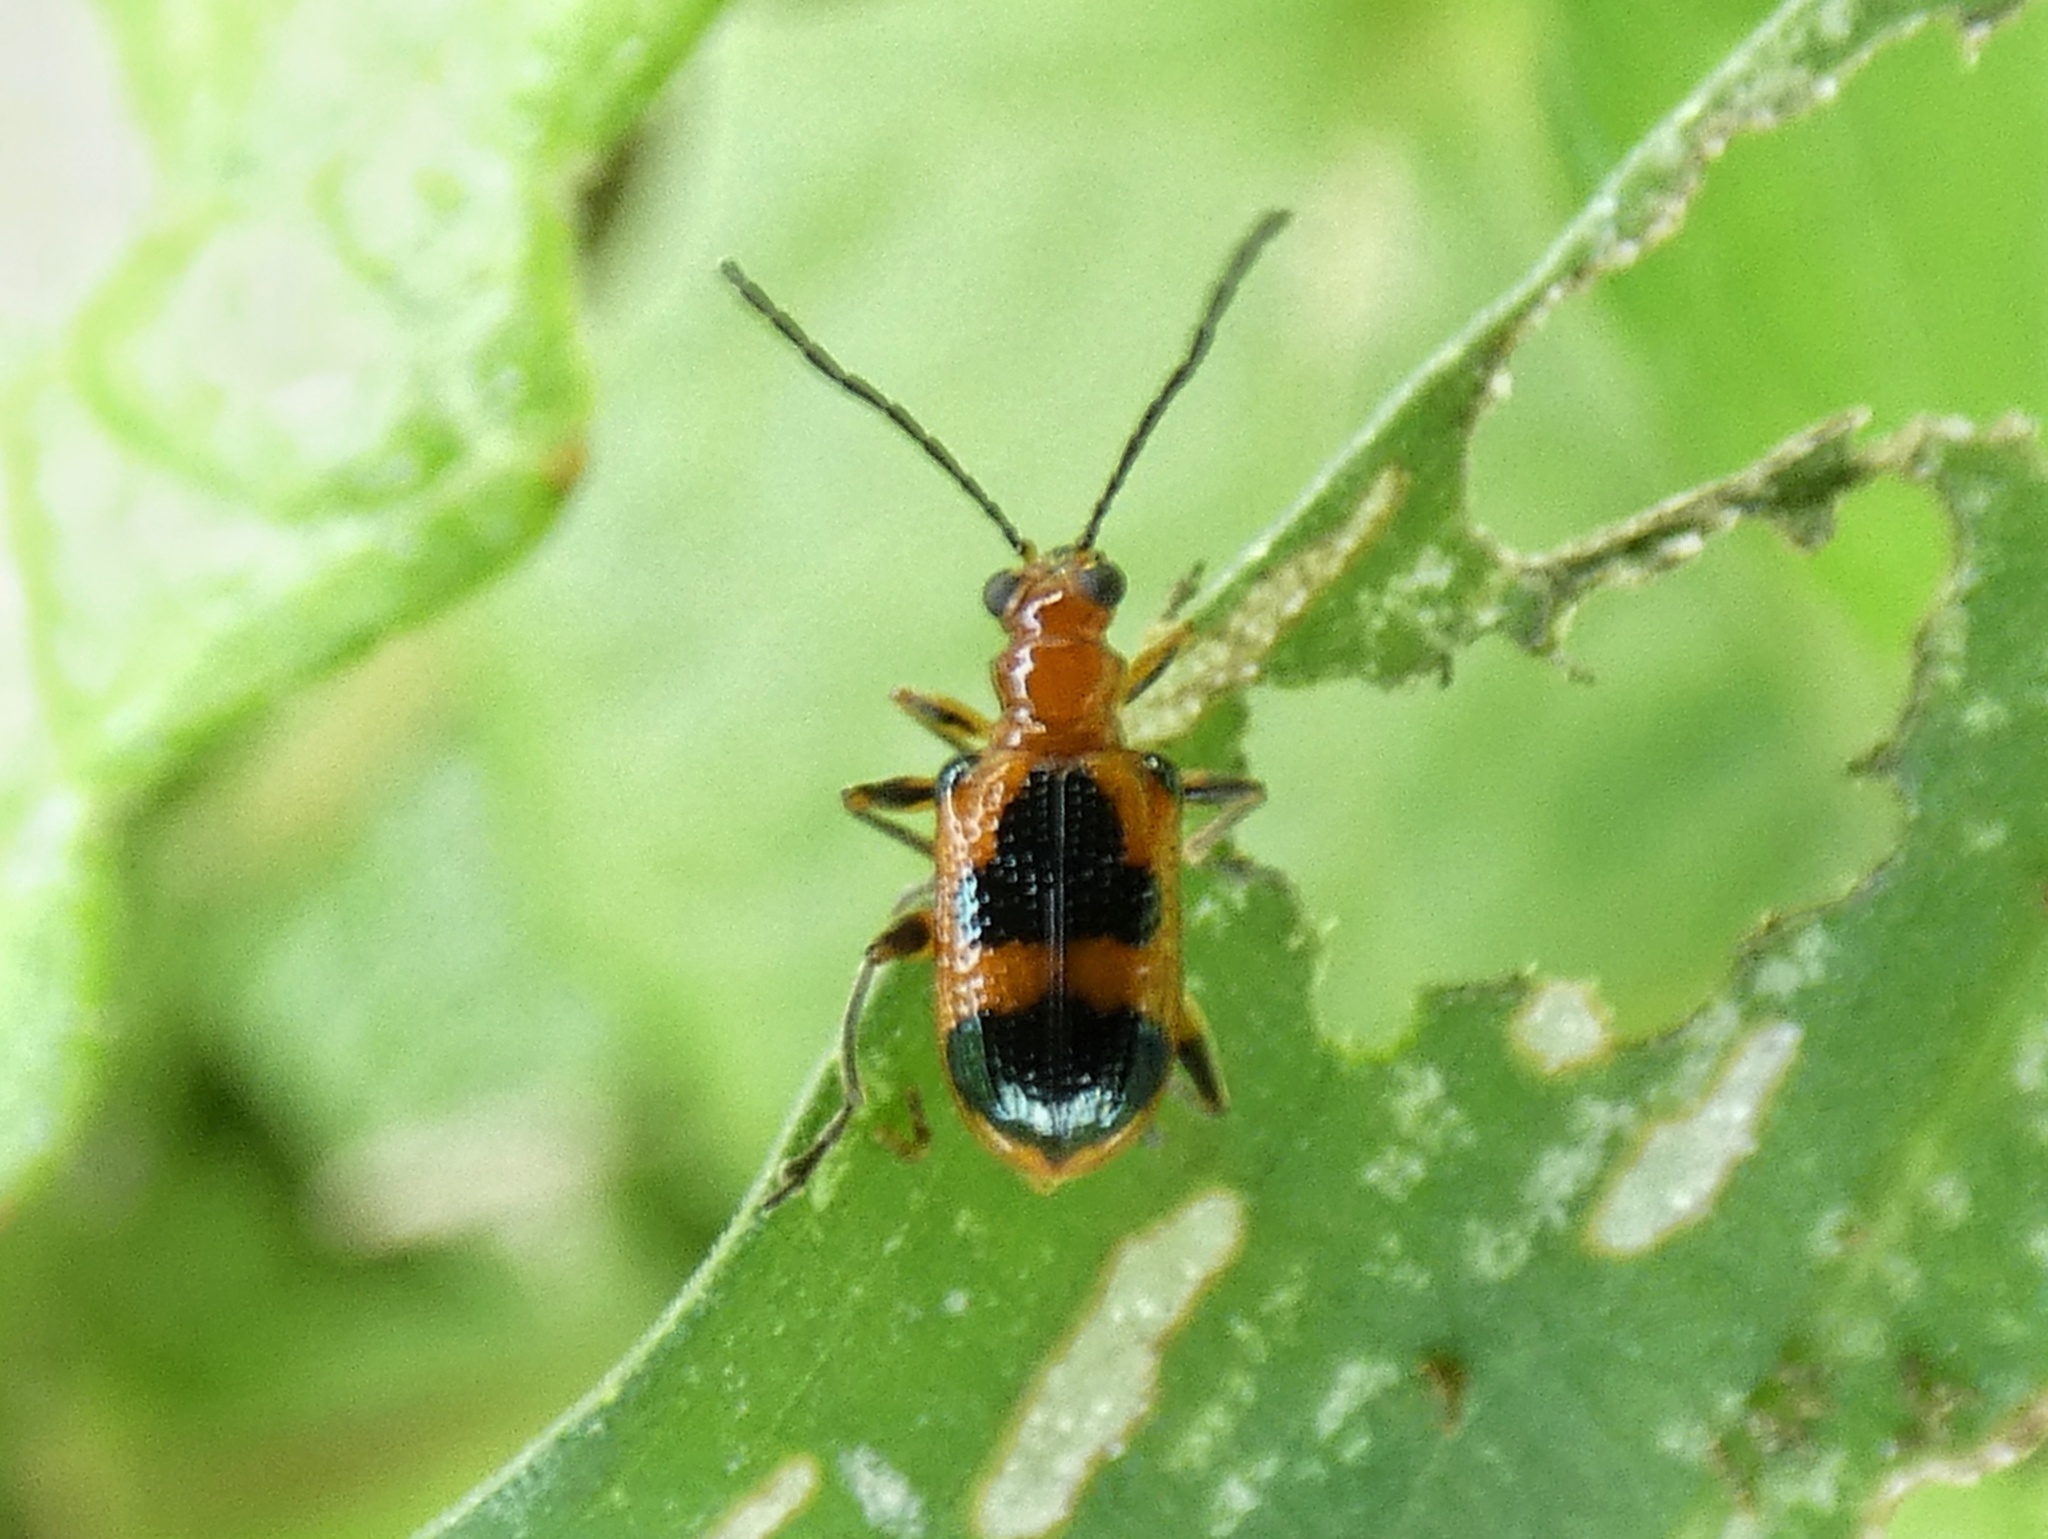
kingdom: Animalia
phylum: Arthropoda
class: Insecta
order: Coleoptera
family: Chrysomelidae
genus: Neolema
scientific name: Neolema dorsalis
